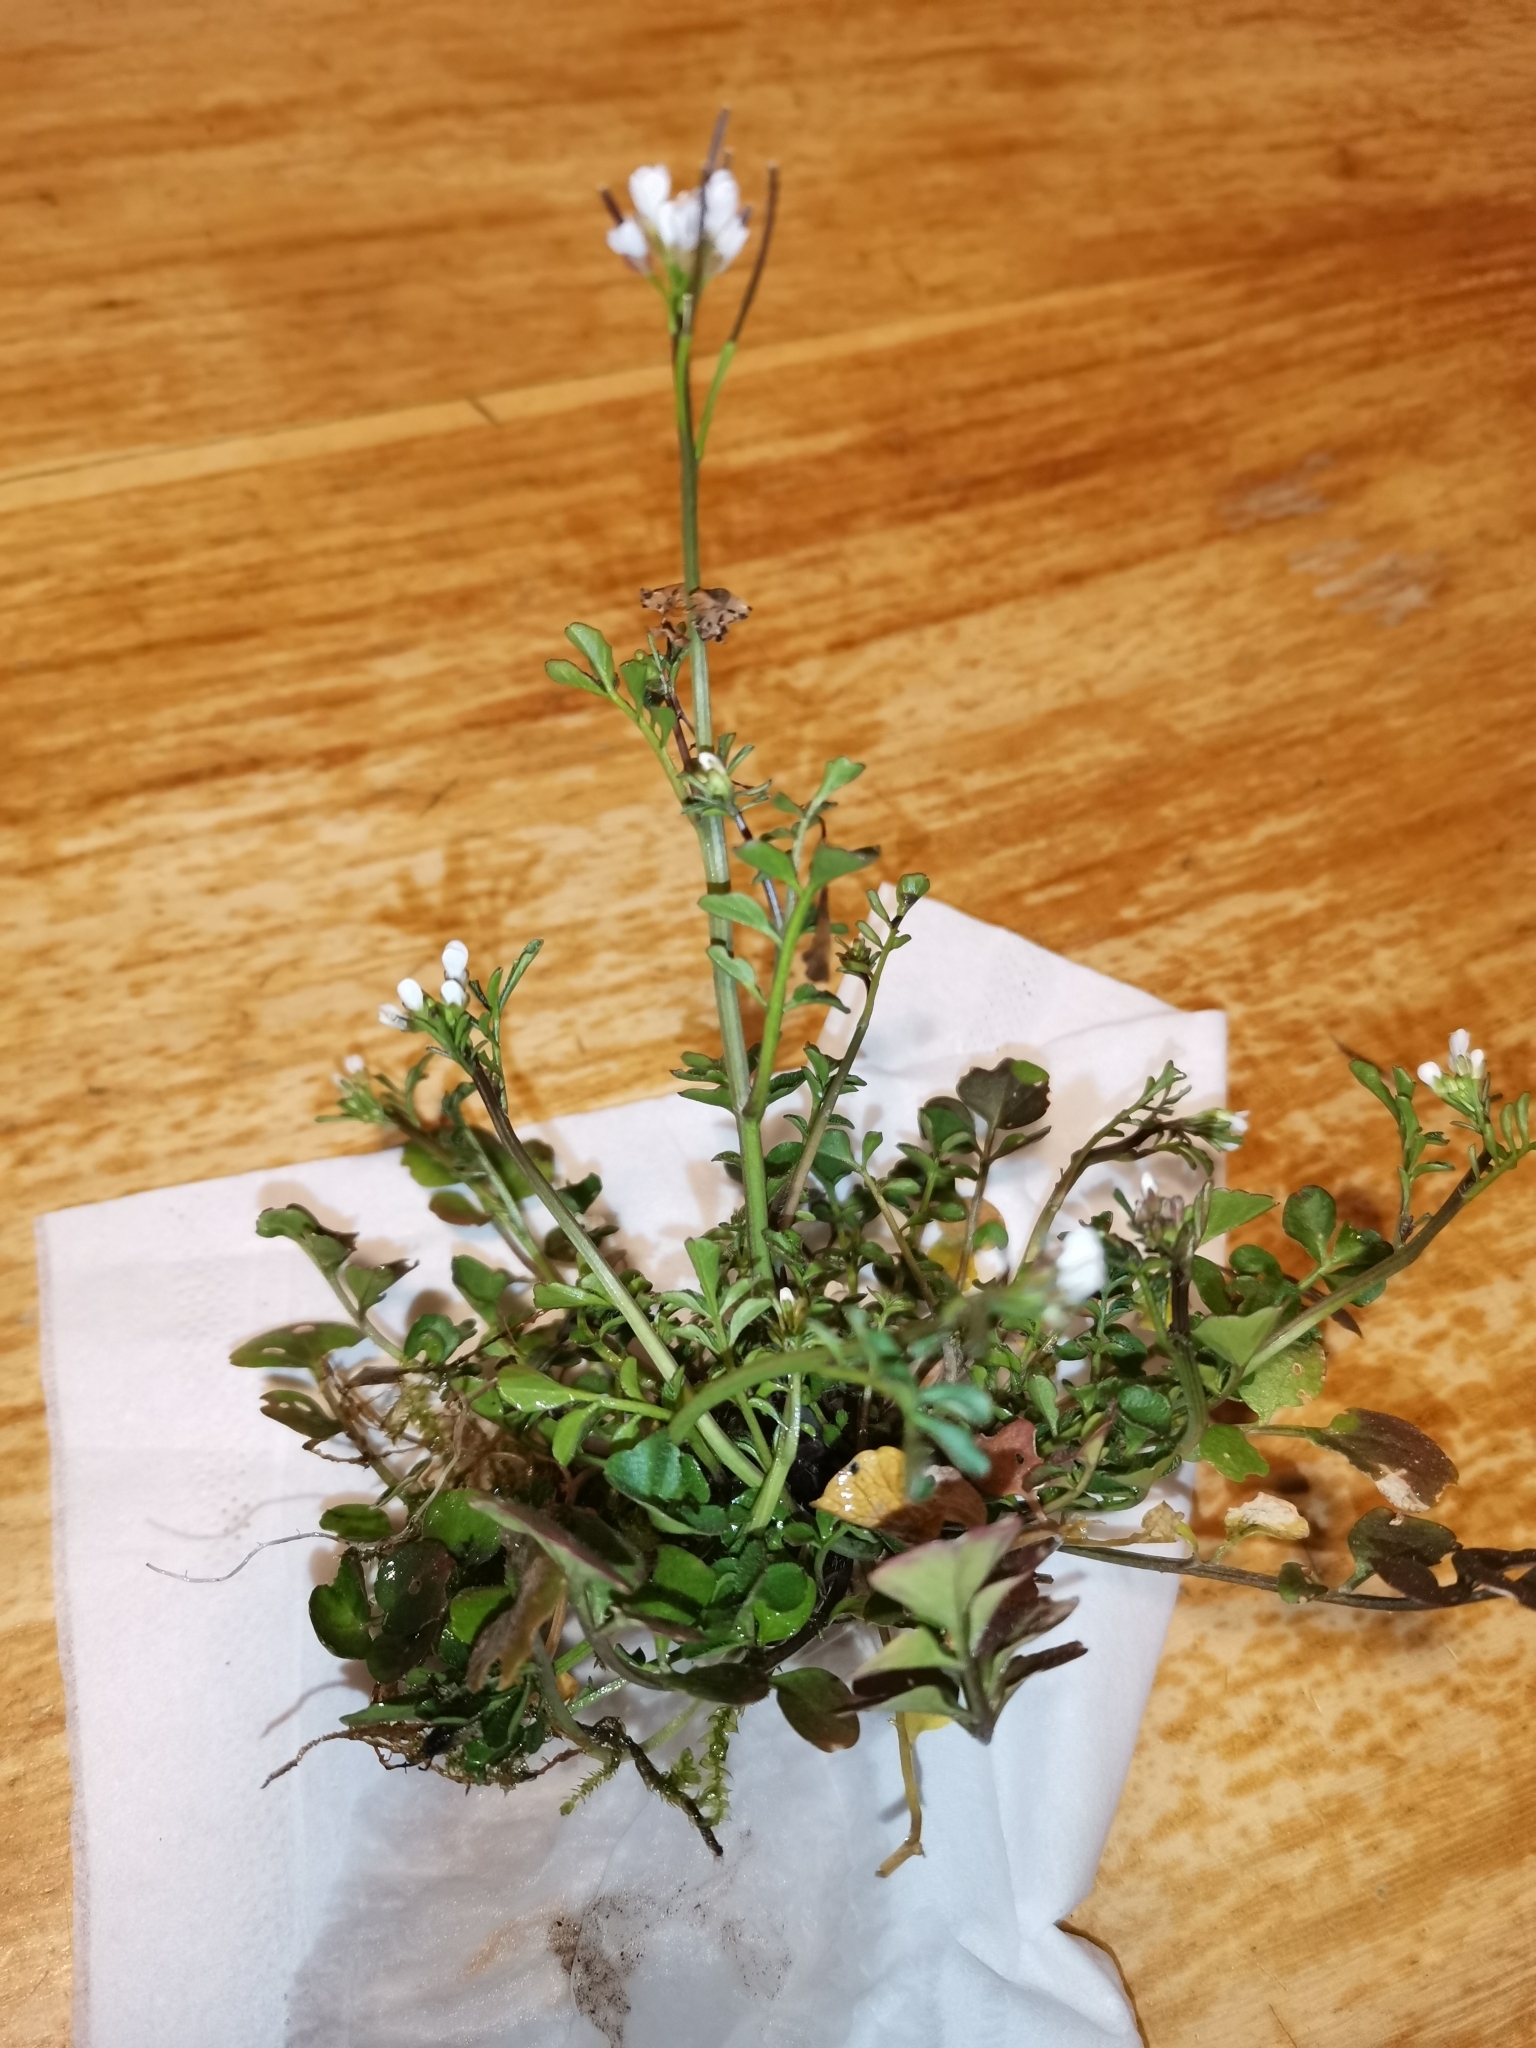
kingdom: Plantae
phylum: Tracheophyta
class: Magnoliopsida
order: Brassicales
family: Brassicaceae
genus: Cardamine
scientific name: Cardamine hirsuta
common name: Hairy bittercress
